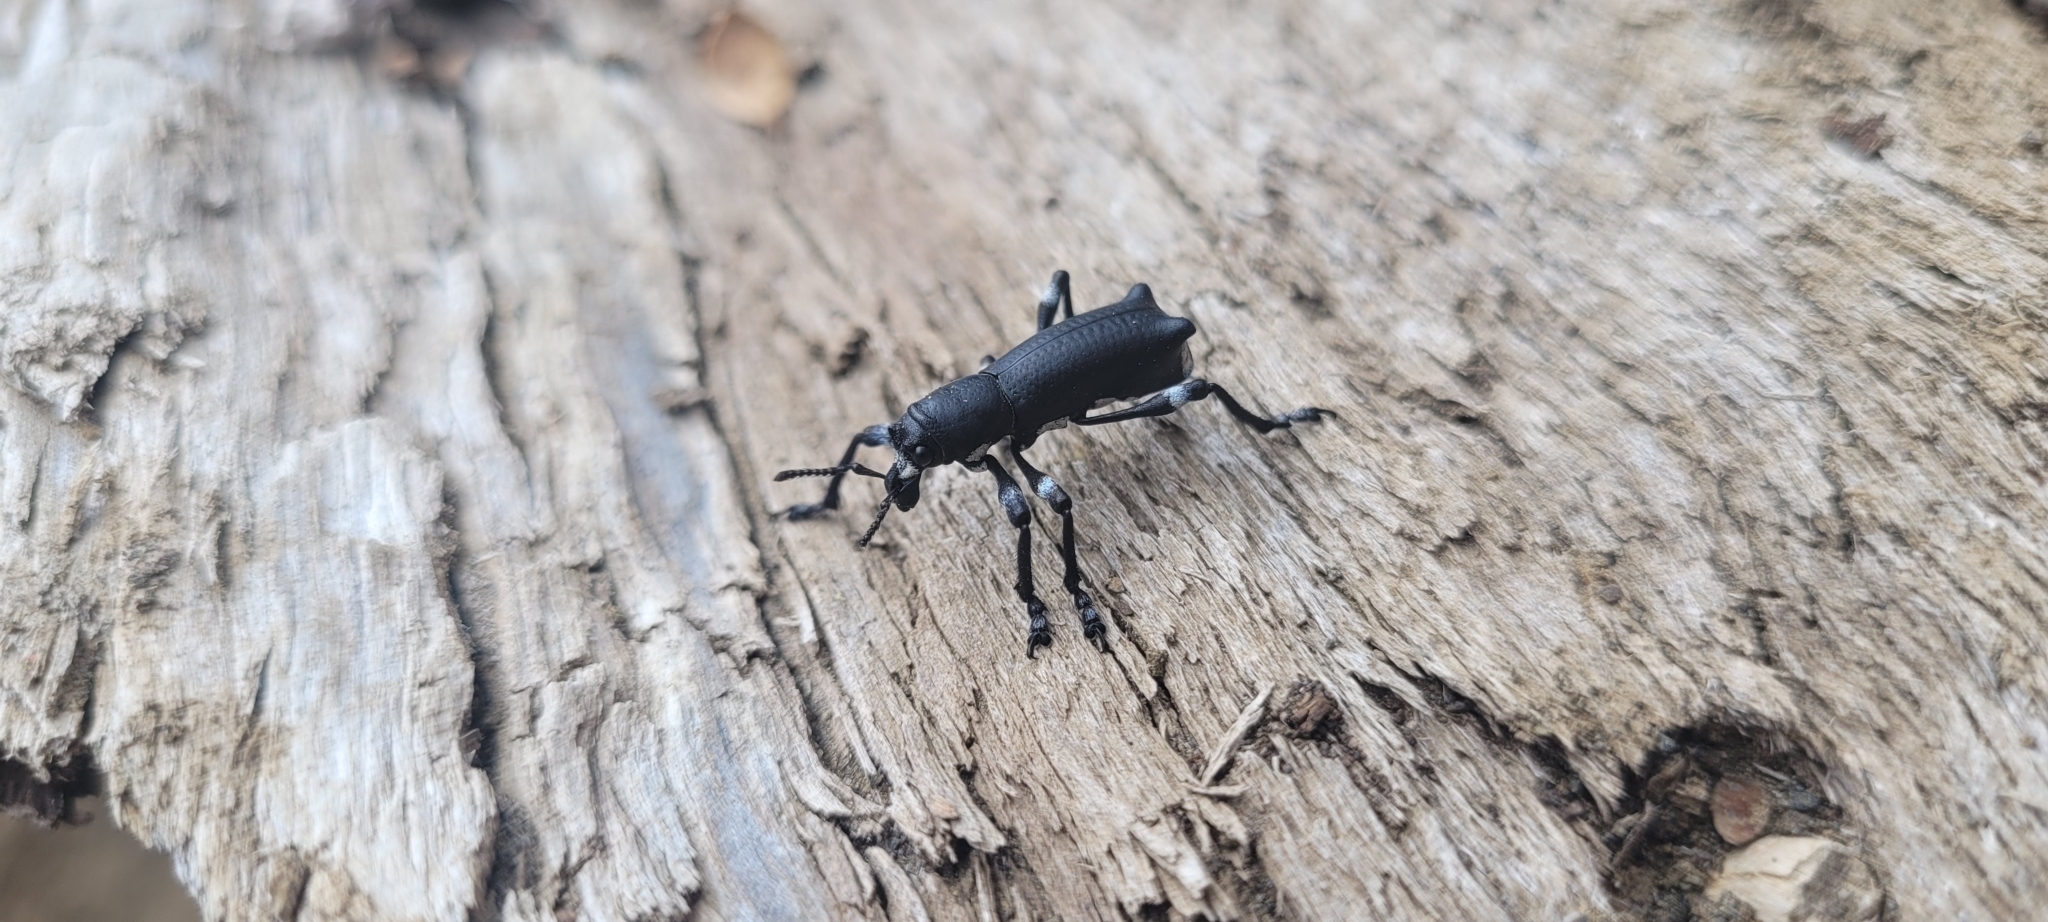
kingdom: Animalia
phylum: Arthropoda
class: Insecta
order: Coleoptera
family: Curculionidae
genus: Aegorhinus
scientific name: Aegorhinus
